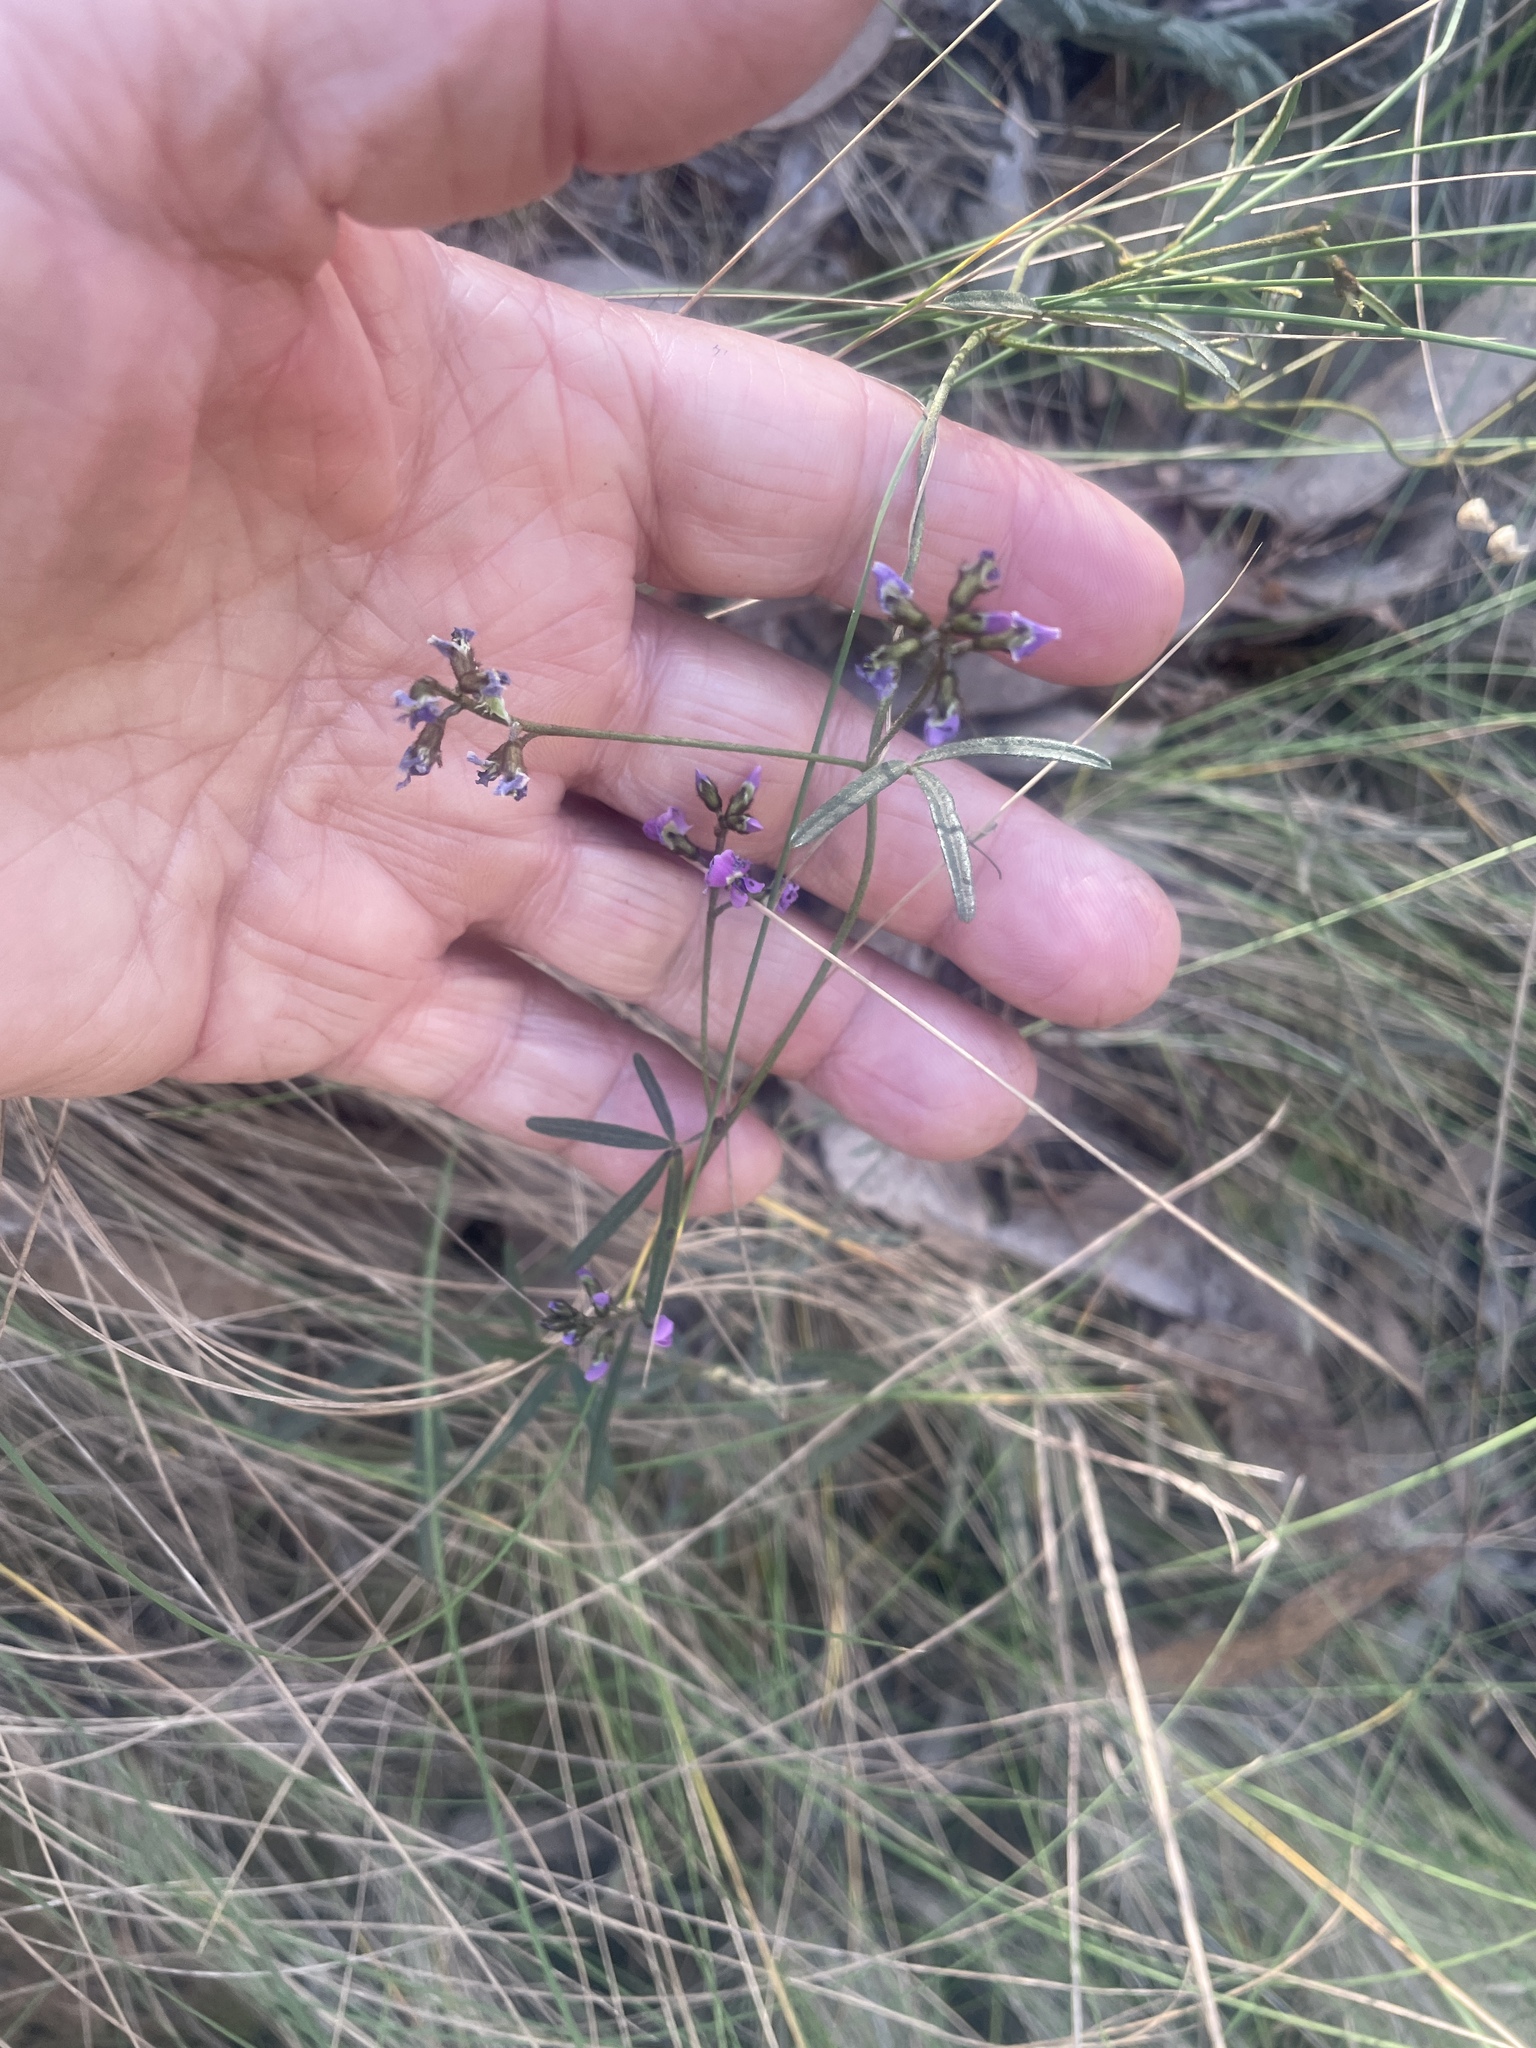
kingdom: Plantae
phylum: Tracheophyta
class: Magnoliopsida
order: Fabales
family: Fabaceae
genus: Glycine
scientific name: Glycine clandestina
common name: Twining glycine
